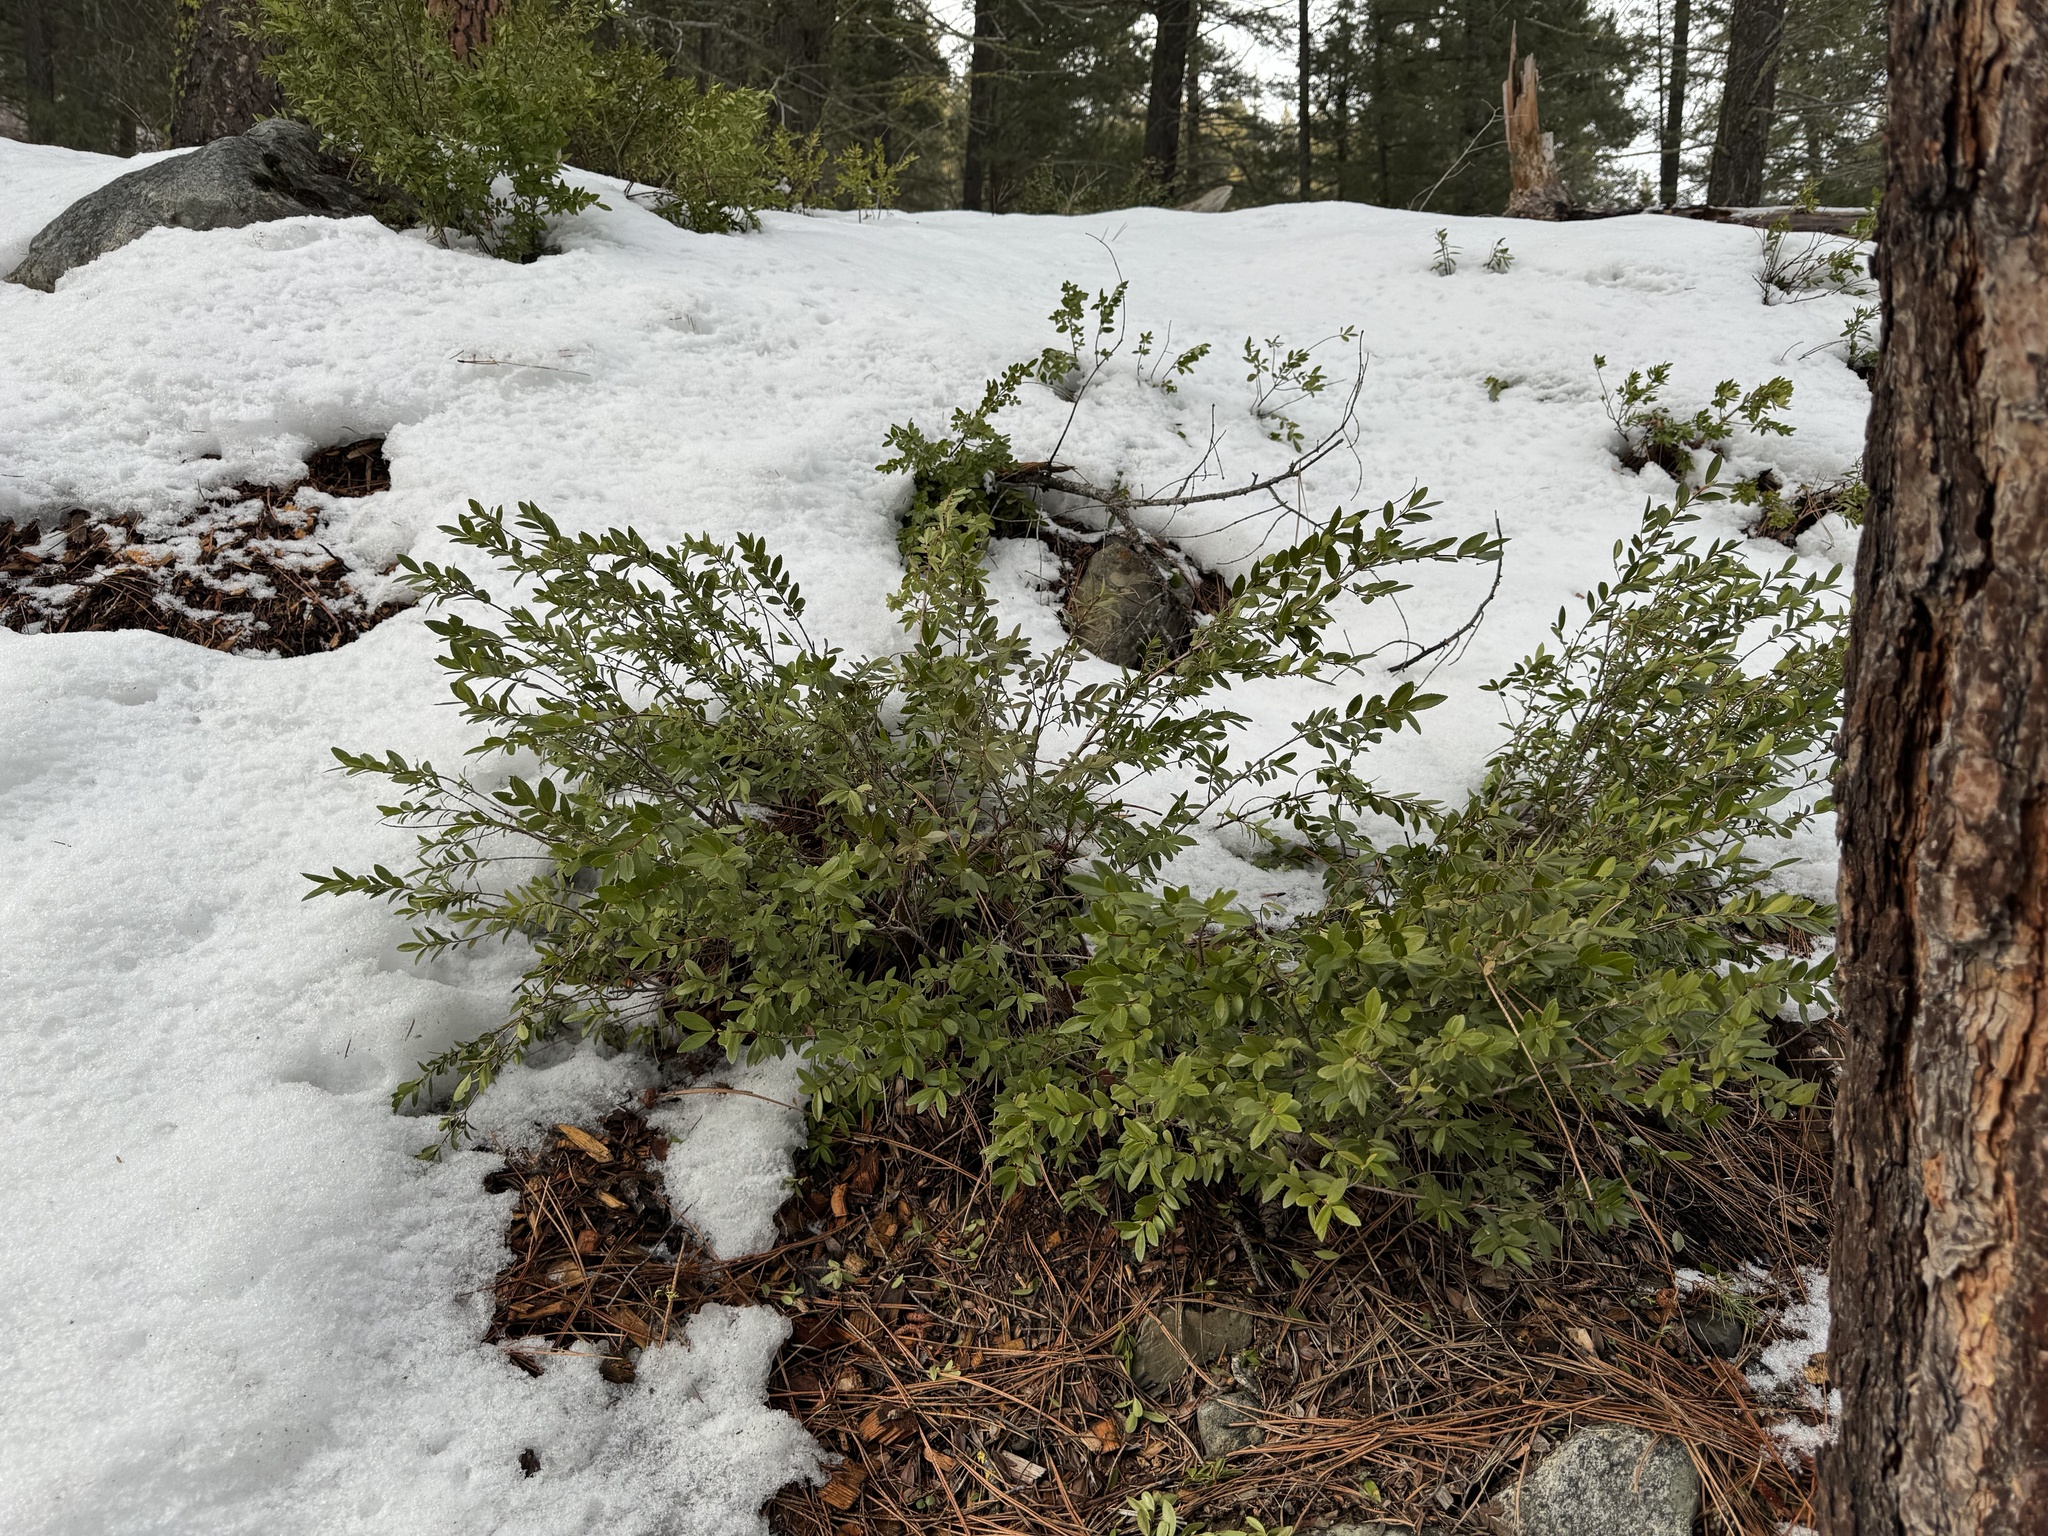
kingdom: Plantae
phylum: Tracheophyta
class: Magnoliopsida
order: Celastrales
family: Celastraceae
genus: Paxistima
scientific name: Paxistima myrsinites
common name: Mountain-lover
